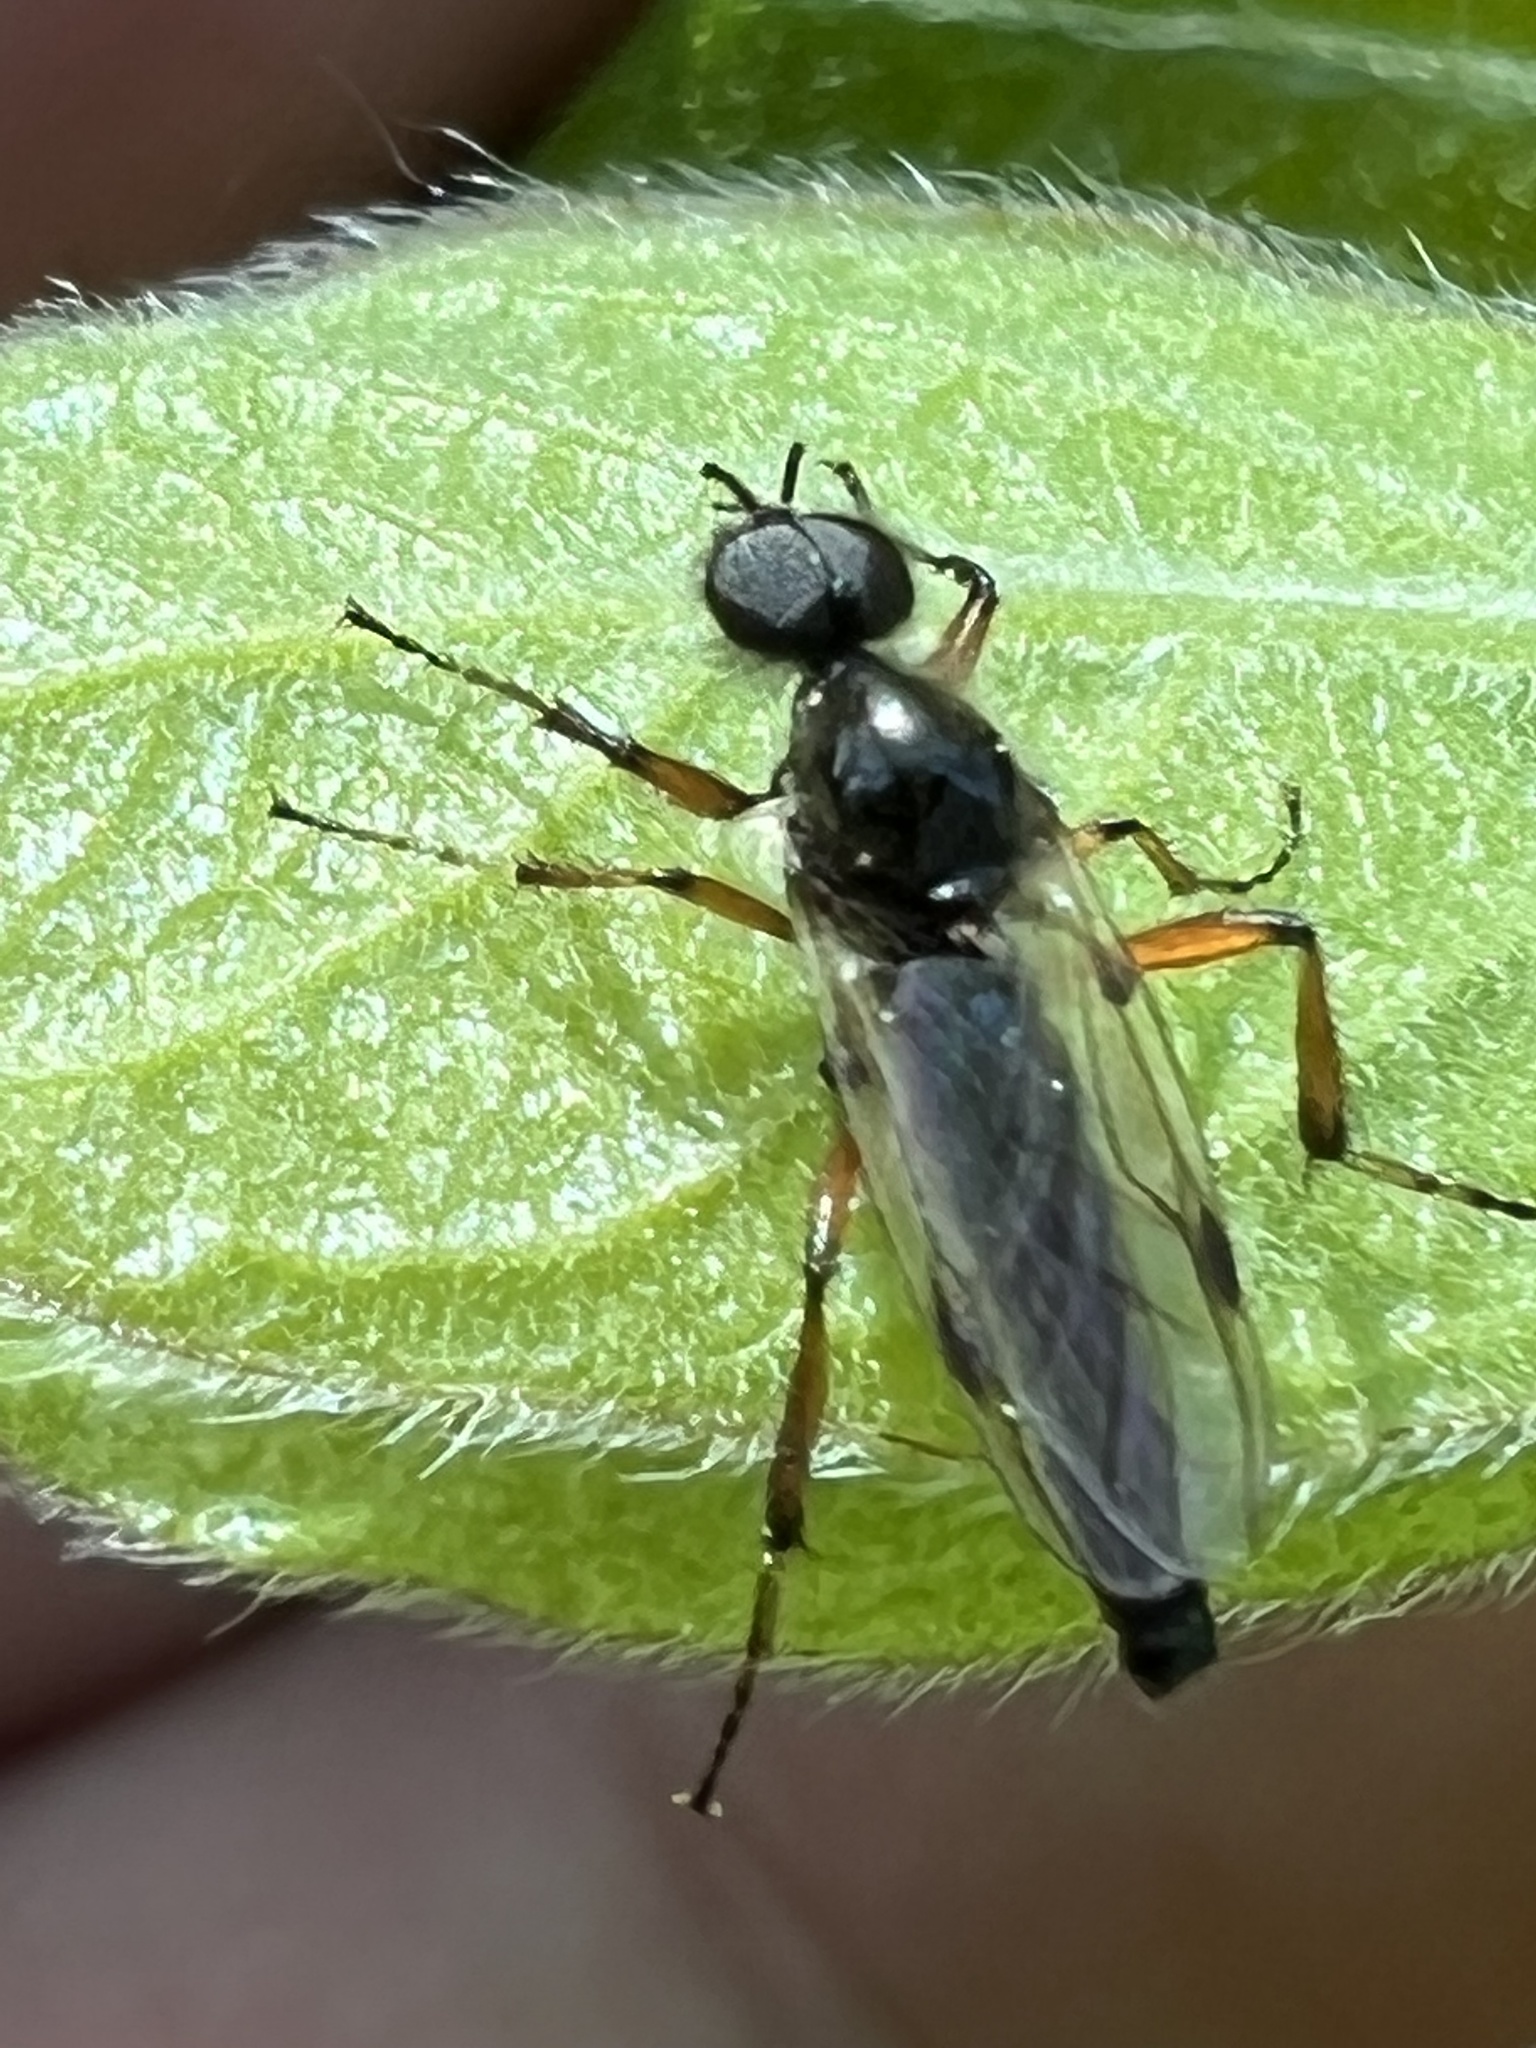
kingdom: Animalia
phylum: Arthropoda
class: Insecta
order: Diptera
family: Bibionidae
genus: Bibio
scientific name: Bibio articulatus
